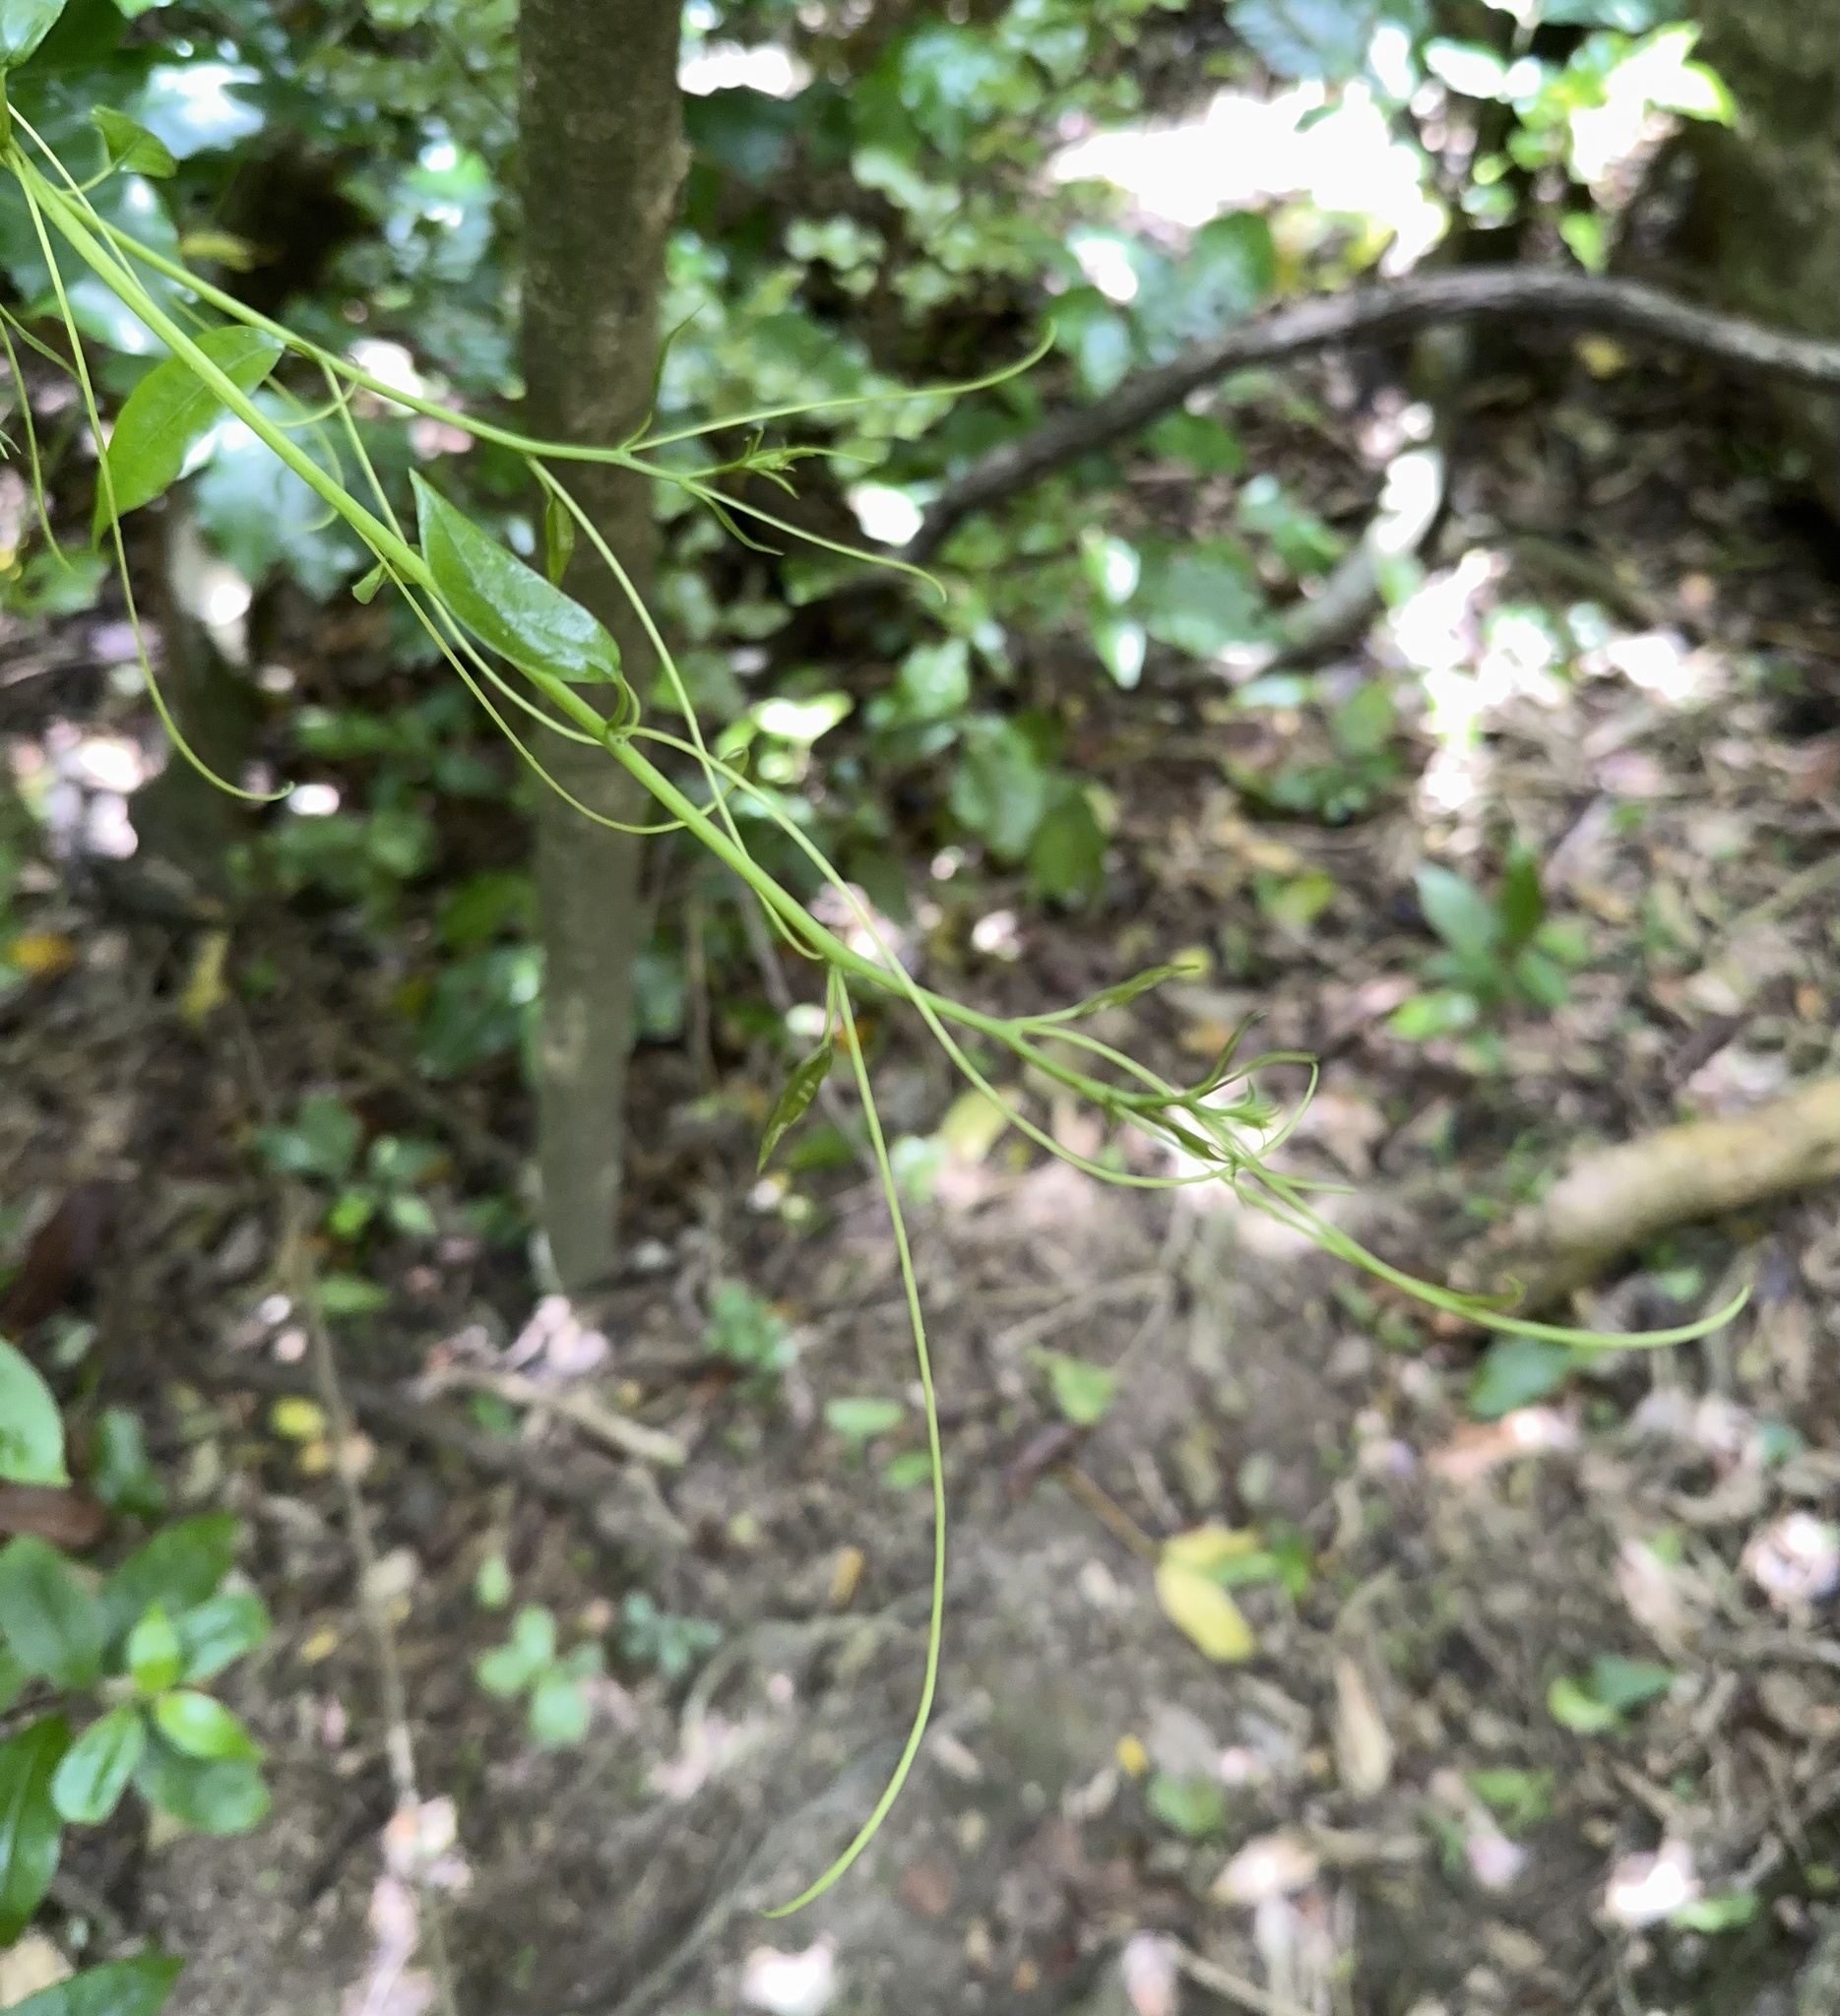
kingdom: Plantae
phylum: Tracheophyta
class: Magnoliopsida
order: Malpighiales
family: Passifloraceae
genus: Passiflora
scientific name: Passiflora tetrandra
